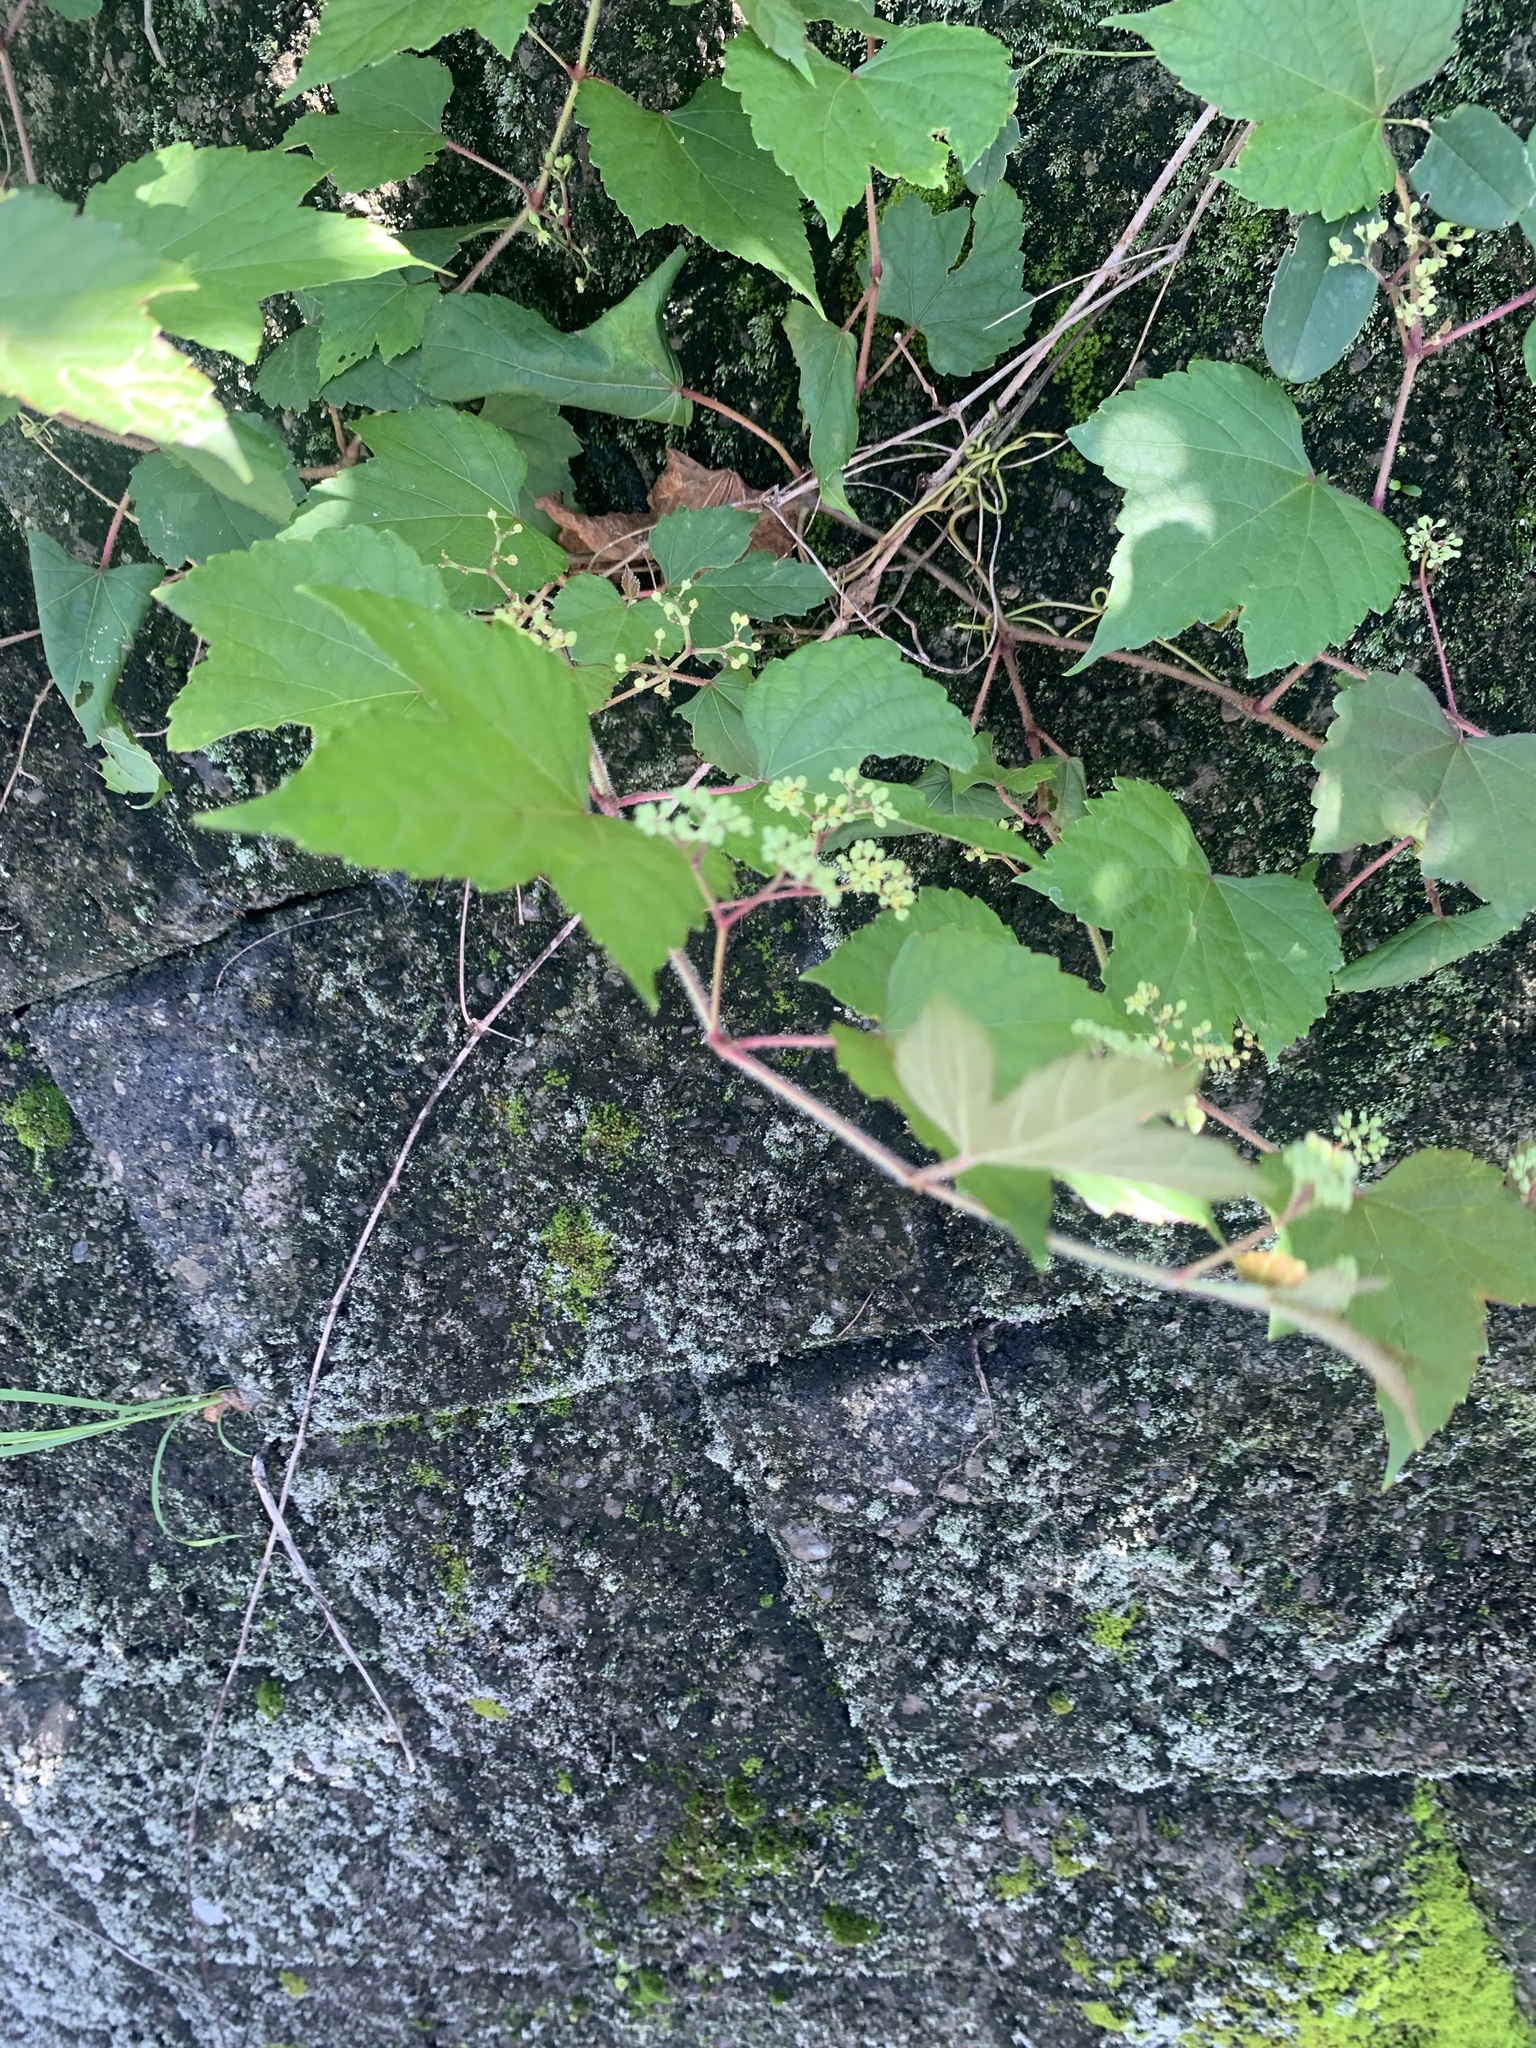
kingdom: Plantae
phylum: Tracheophyta
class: Magnoliopsida
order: Vitales
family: Vitaceae
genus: Ampelopsis
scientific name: Ampelopsis glandulosa
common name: Amur peppervine
